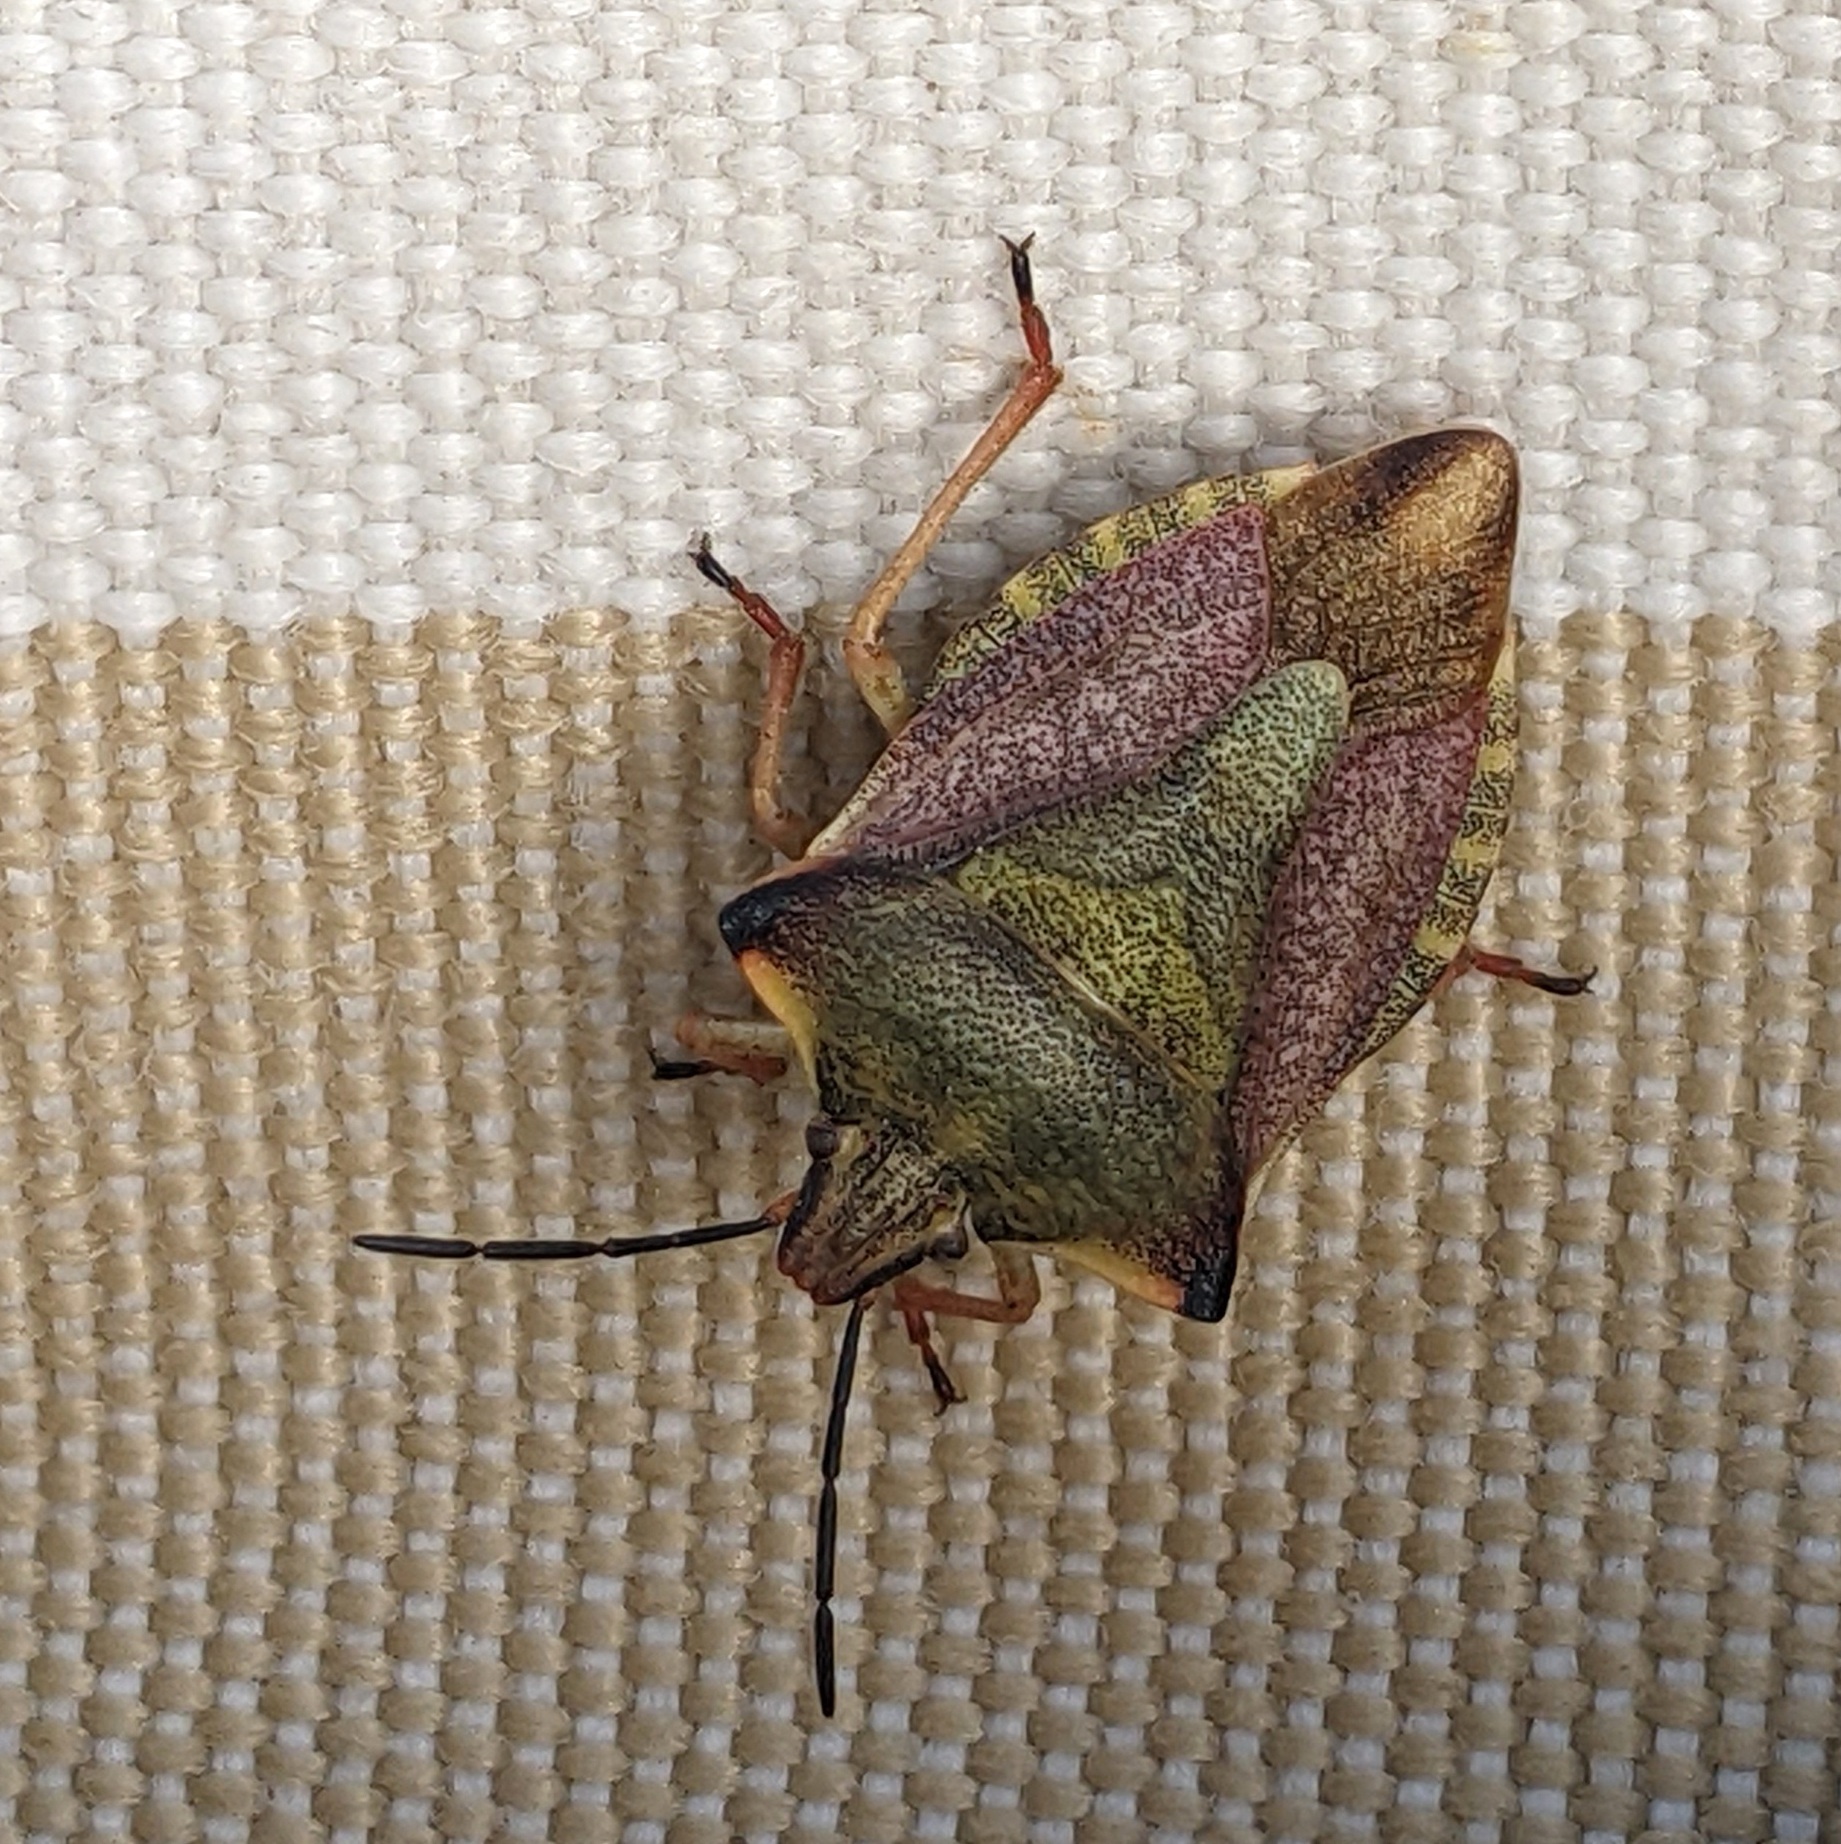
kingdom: Animalia
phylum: Arthropoda
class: Insecta
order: Hemiptera
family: Pentatomidae
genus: Carpocoris
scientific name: Carpocoris mediterraneus
